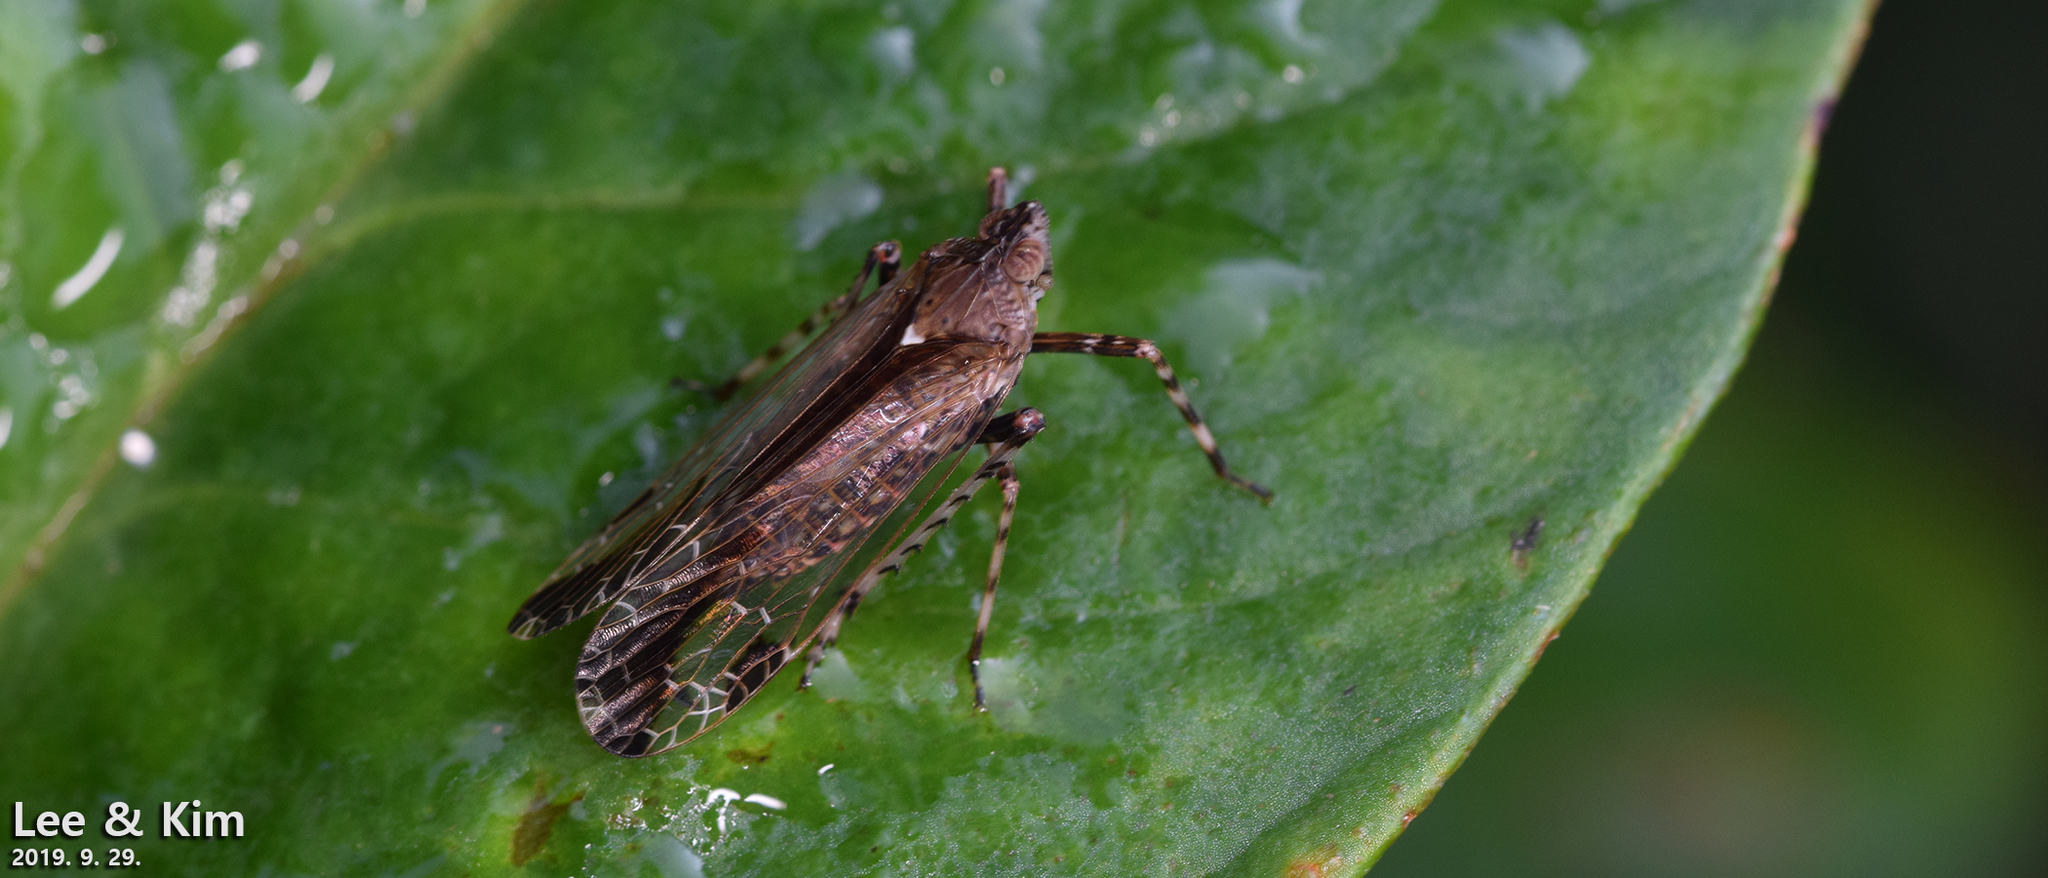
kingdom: Animalia
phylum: Arthropoda
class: Insecta
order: Hemiptera
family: Dictyopharidae
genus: Orthopagus
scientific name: Orthopagus lunulifer
